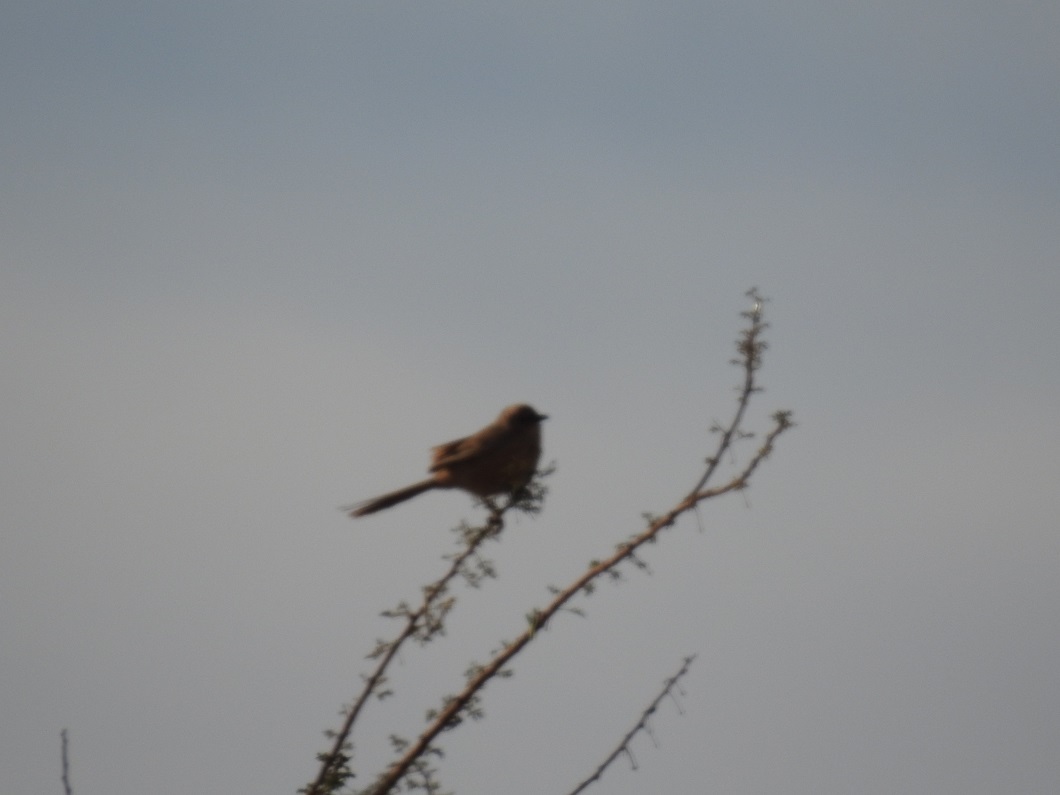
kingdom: Animalia
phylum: Chordata
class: Aves
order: Passeriformes
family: Leiothrichidae
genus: Turdoides
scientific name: Turdoides fulva
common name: Fulvous babbler
